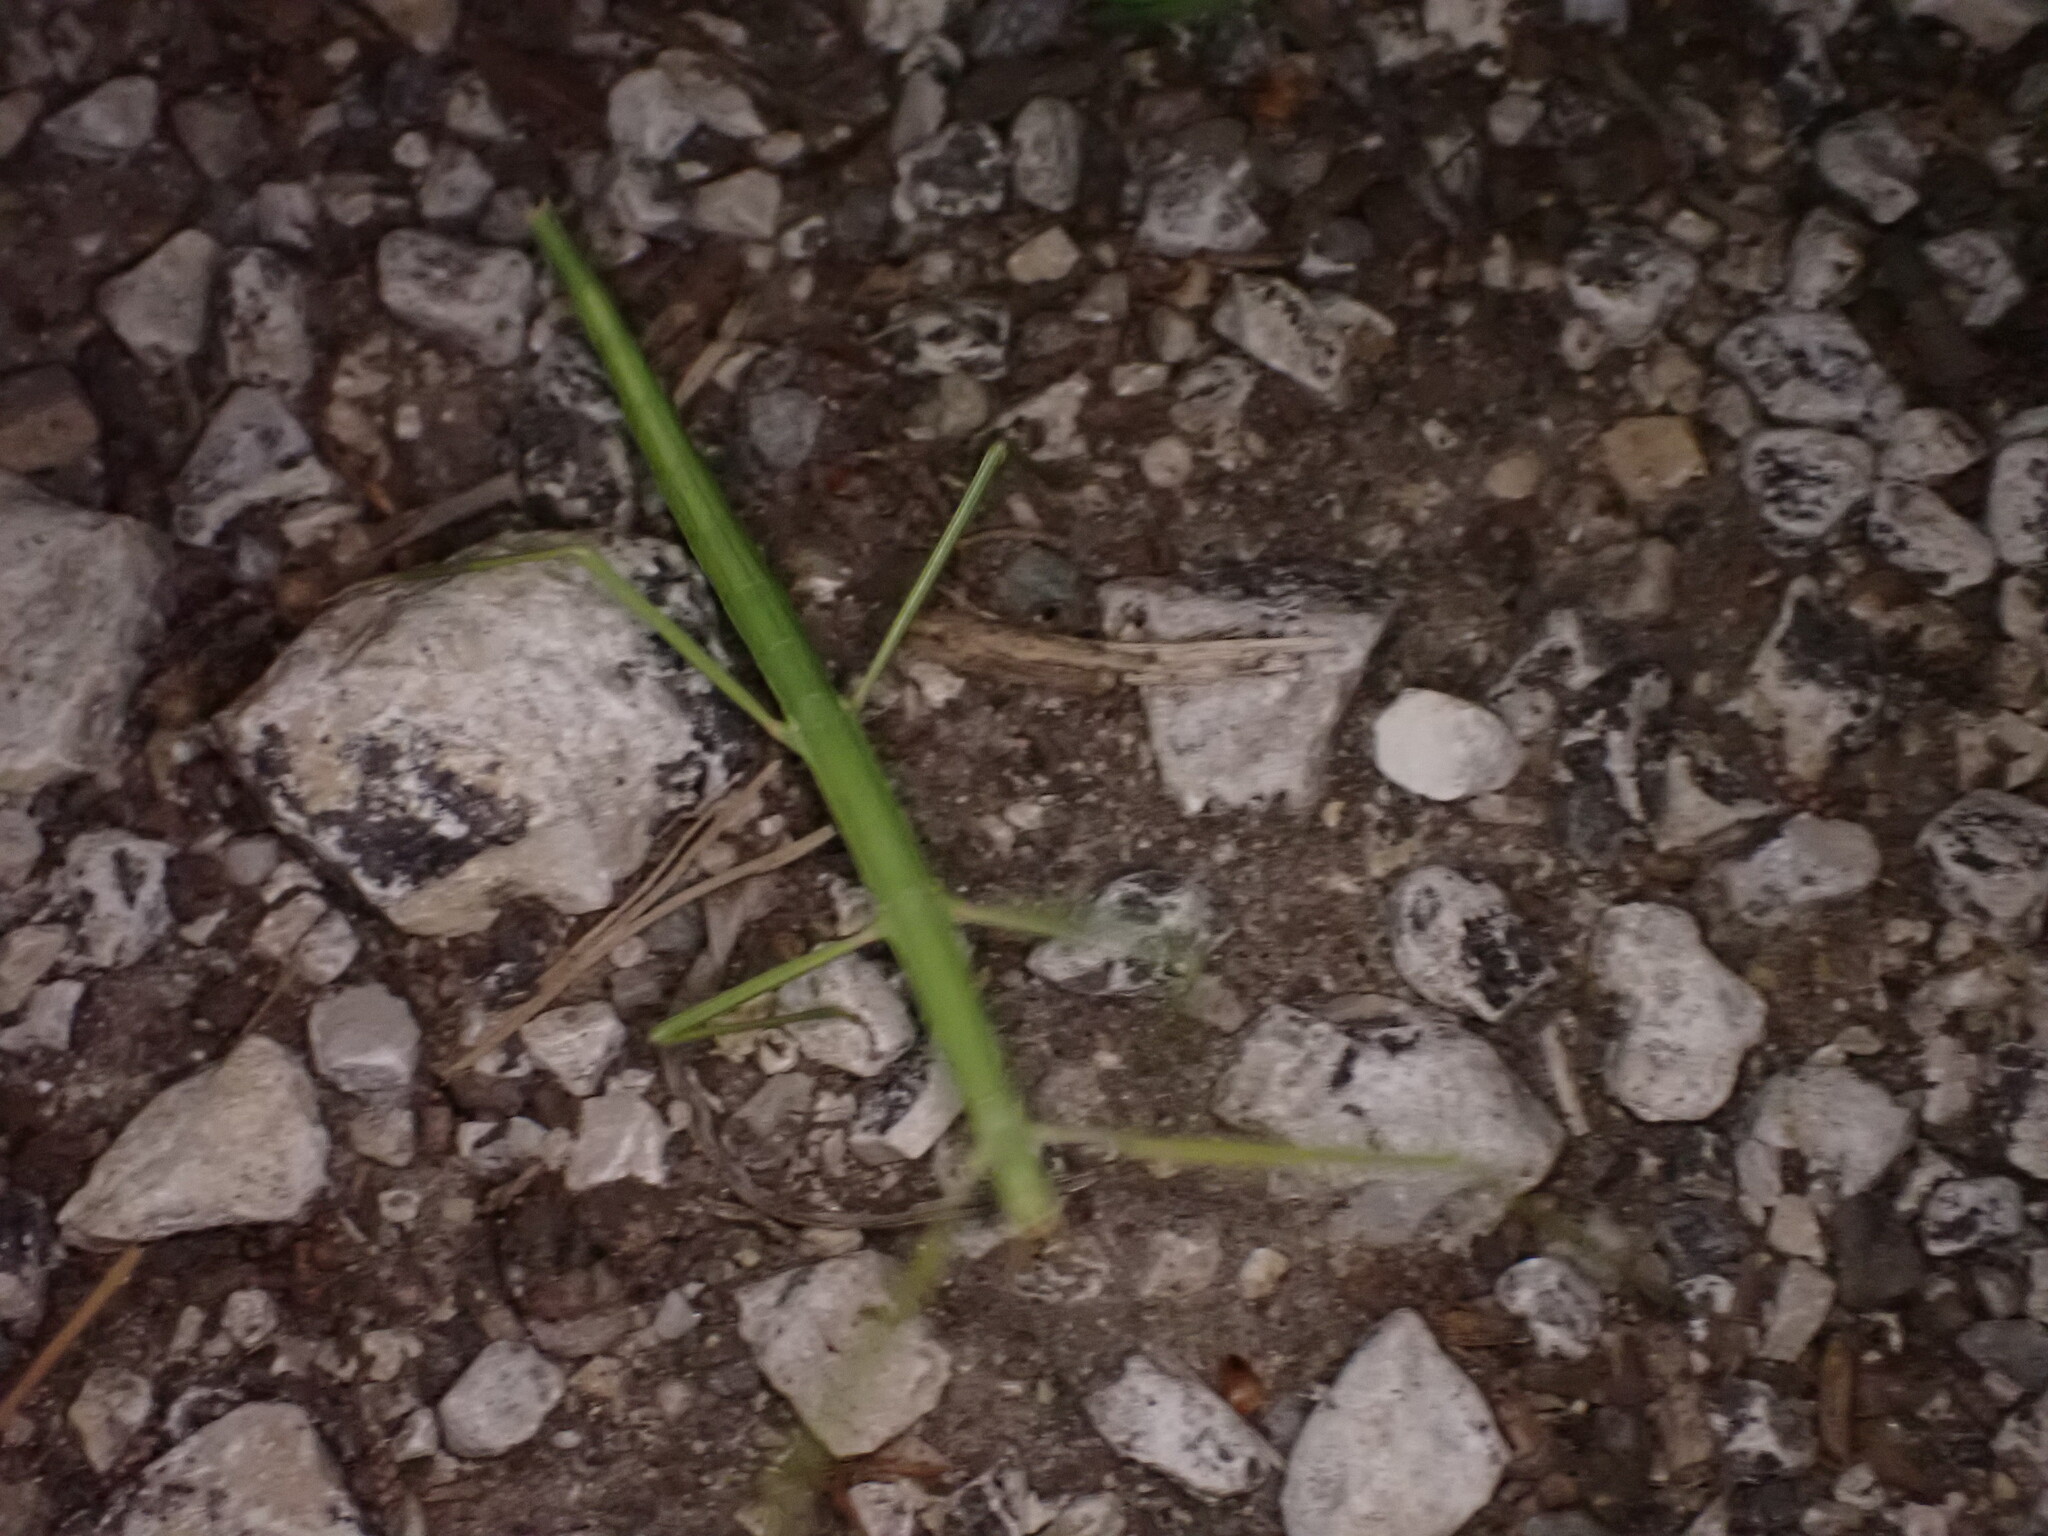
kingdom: Animalia
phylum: Arthropoda
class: Insecta
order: Phasmida
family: Bacillidae
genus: Clonopsis
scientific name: Clonopsis gallica
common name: French stick insect
